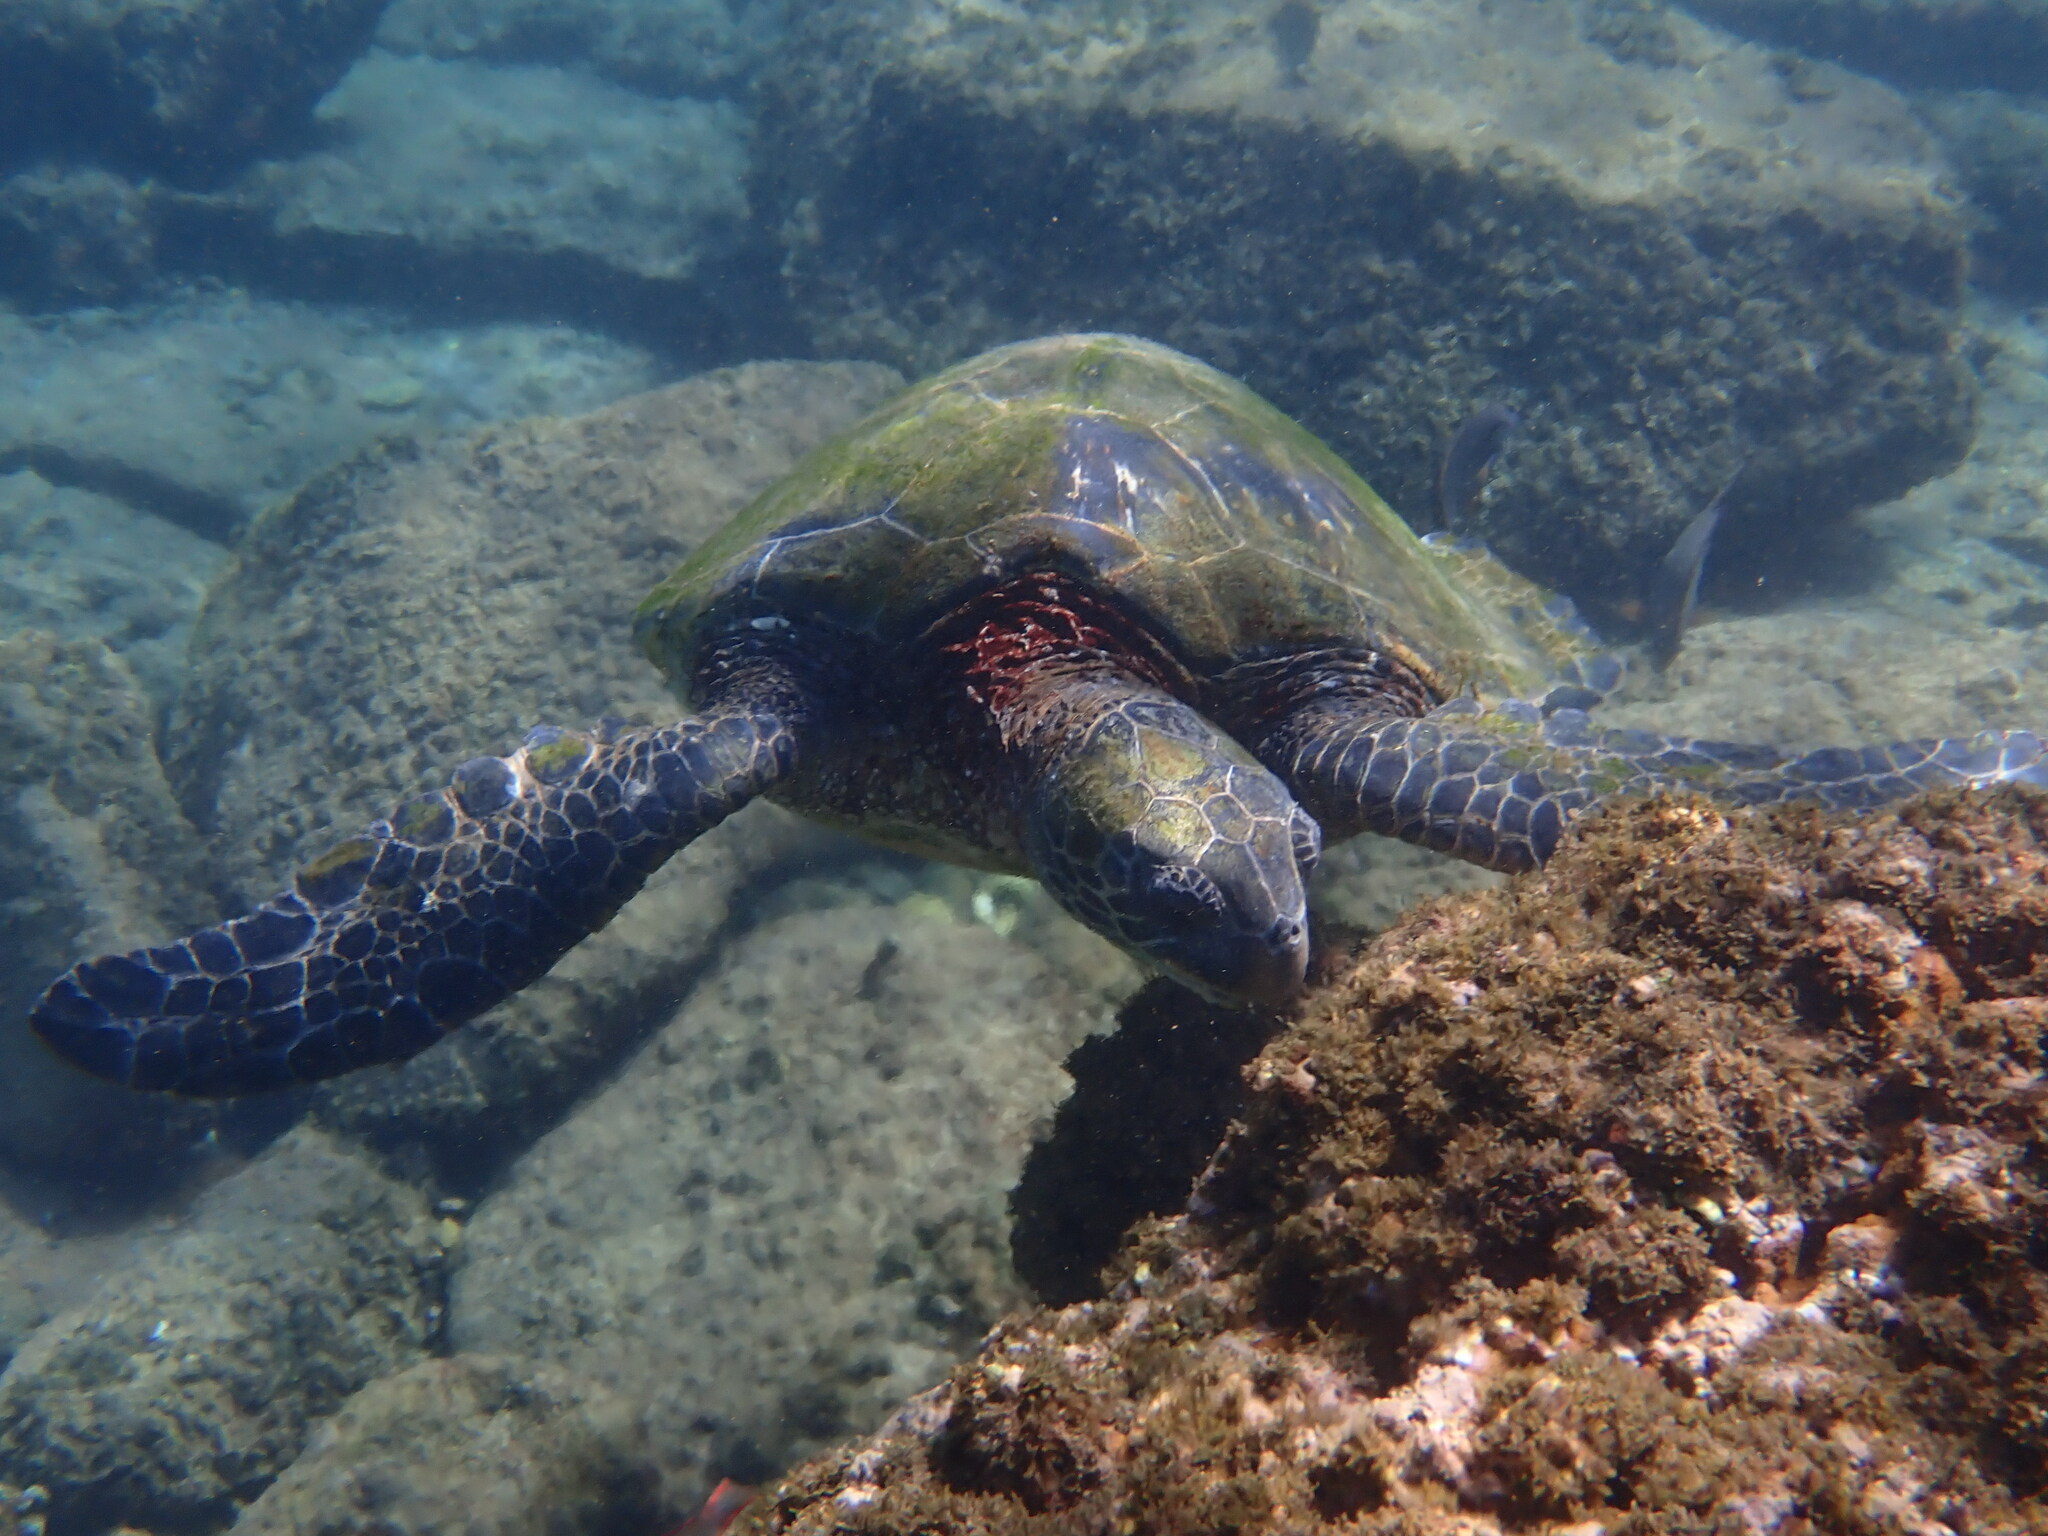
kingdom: Animalia
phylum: Chordata
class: Testudines
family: Cheloniidae
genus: Chelonia
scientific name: Chelonia mydas
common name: Green turtle
